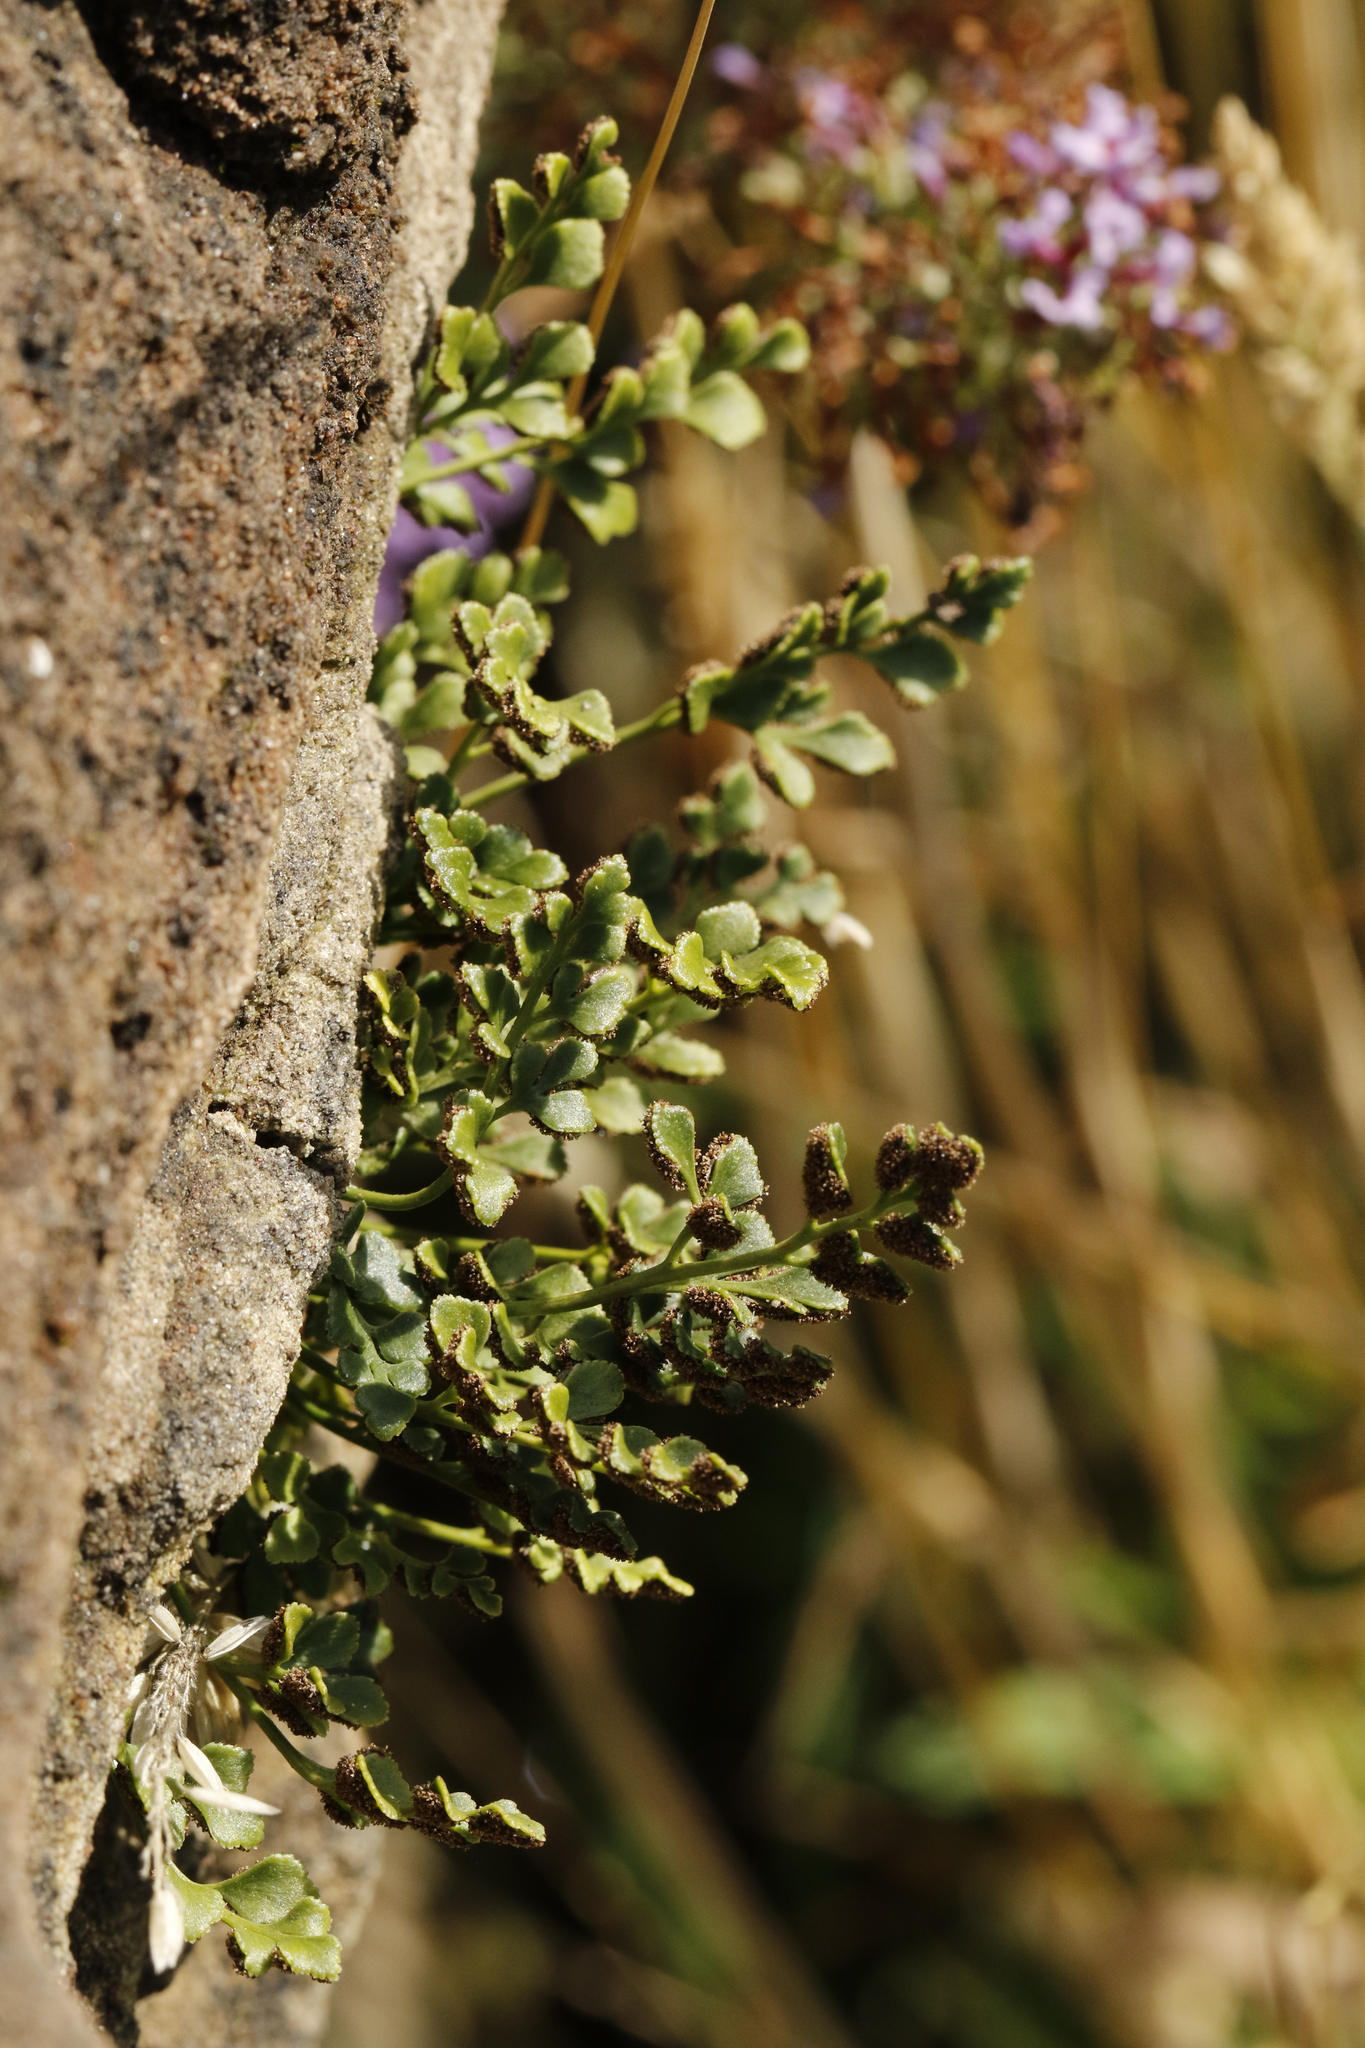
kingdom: Plantae
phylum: Tracheophyta
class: Polypodiopsida
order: Polypodiales
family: Aspleniaceae
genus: Asplenium
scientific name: Asplenium ruta-muraria
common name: Wall-rue
